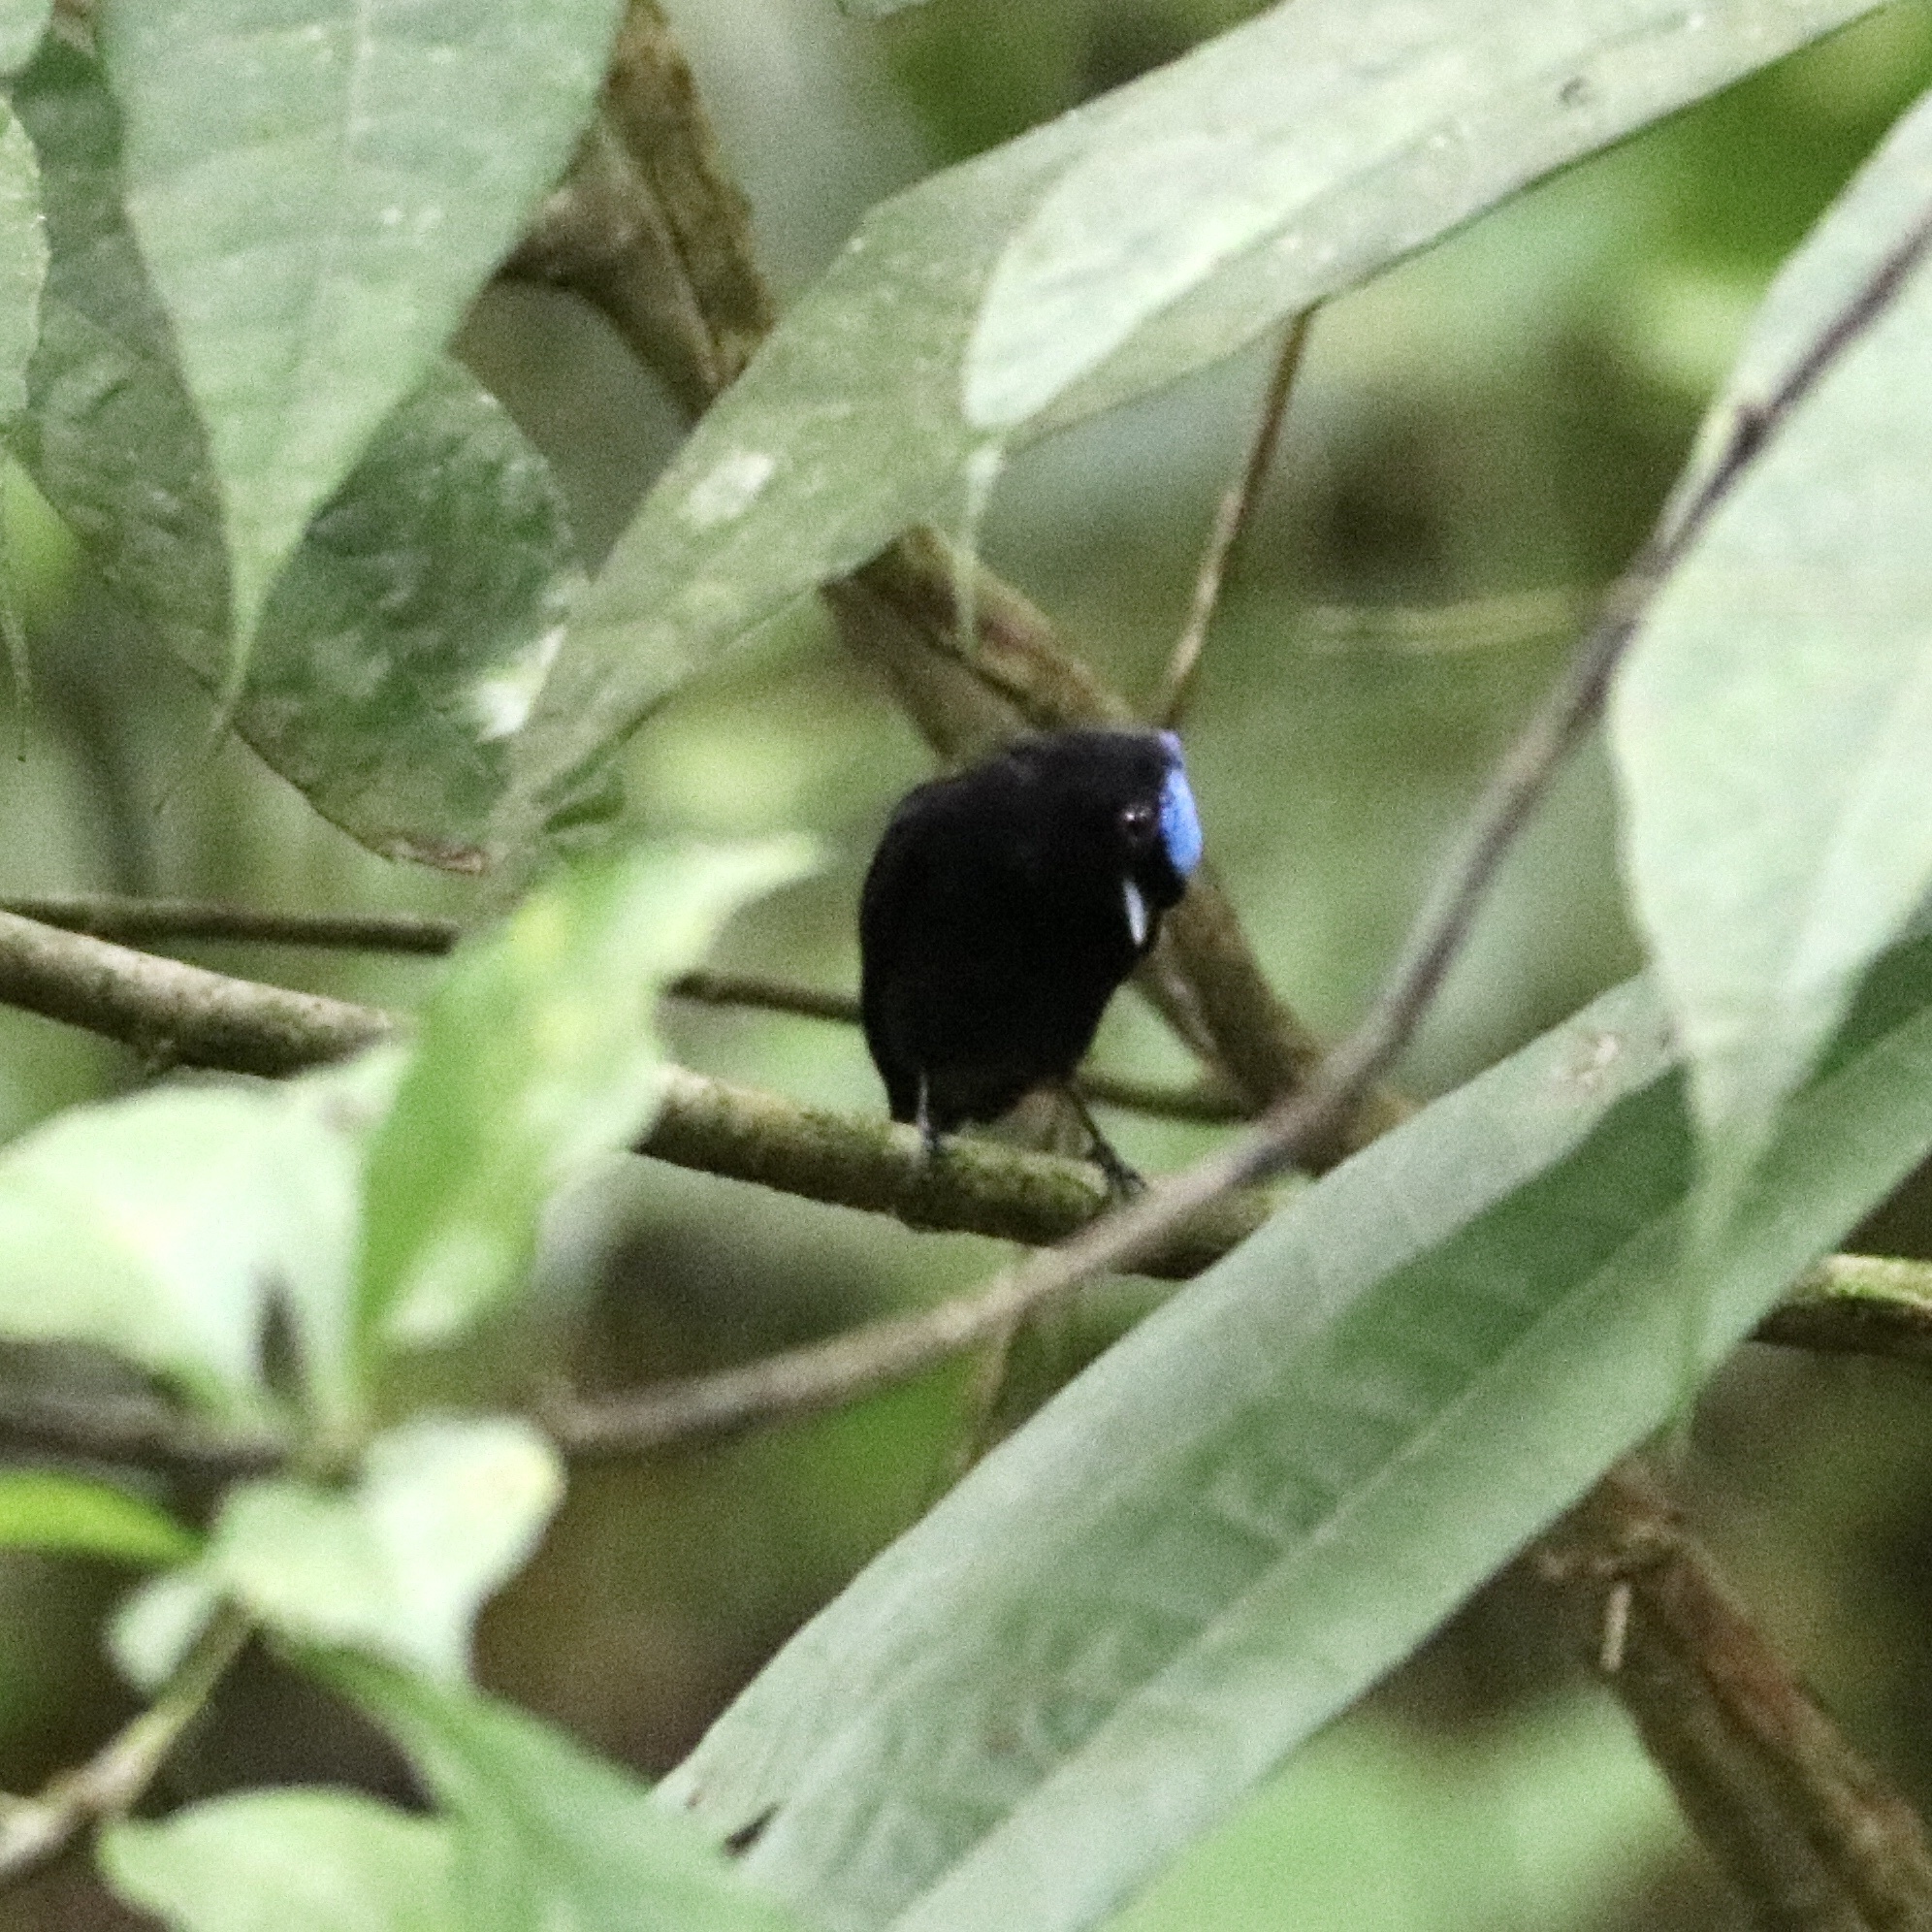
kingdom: Animalia
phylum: Chordata
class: Aves
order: Passeriformes
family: Pipridae
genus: Lepidothrix
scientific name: Lepidothrix coronata
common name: Blue-crowned manakin
